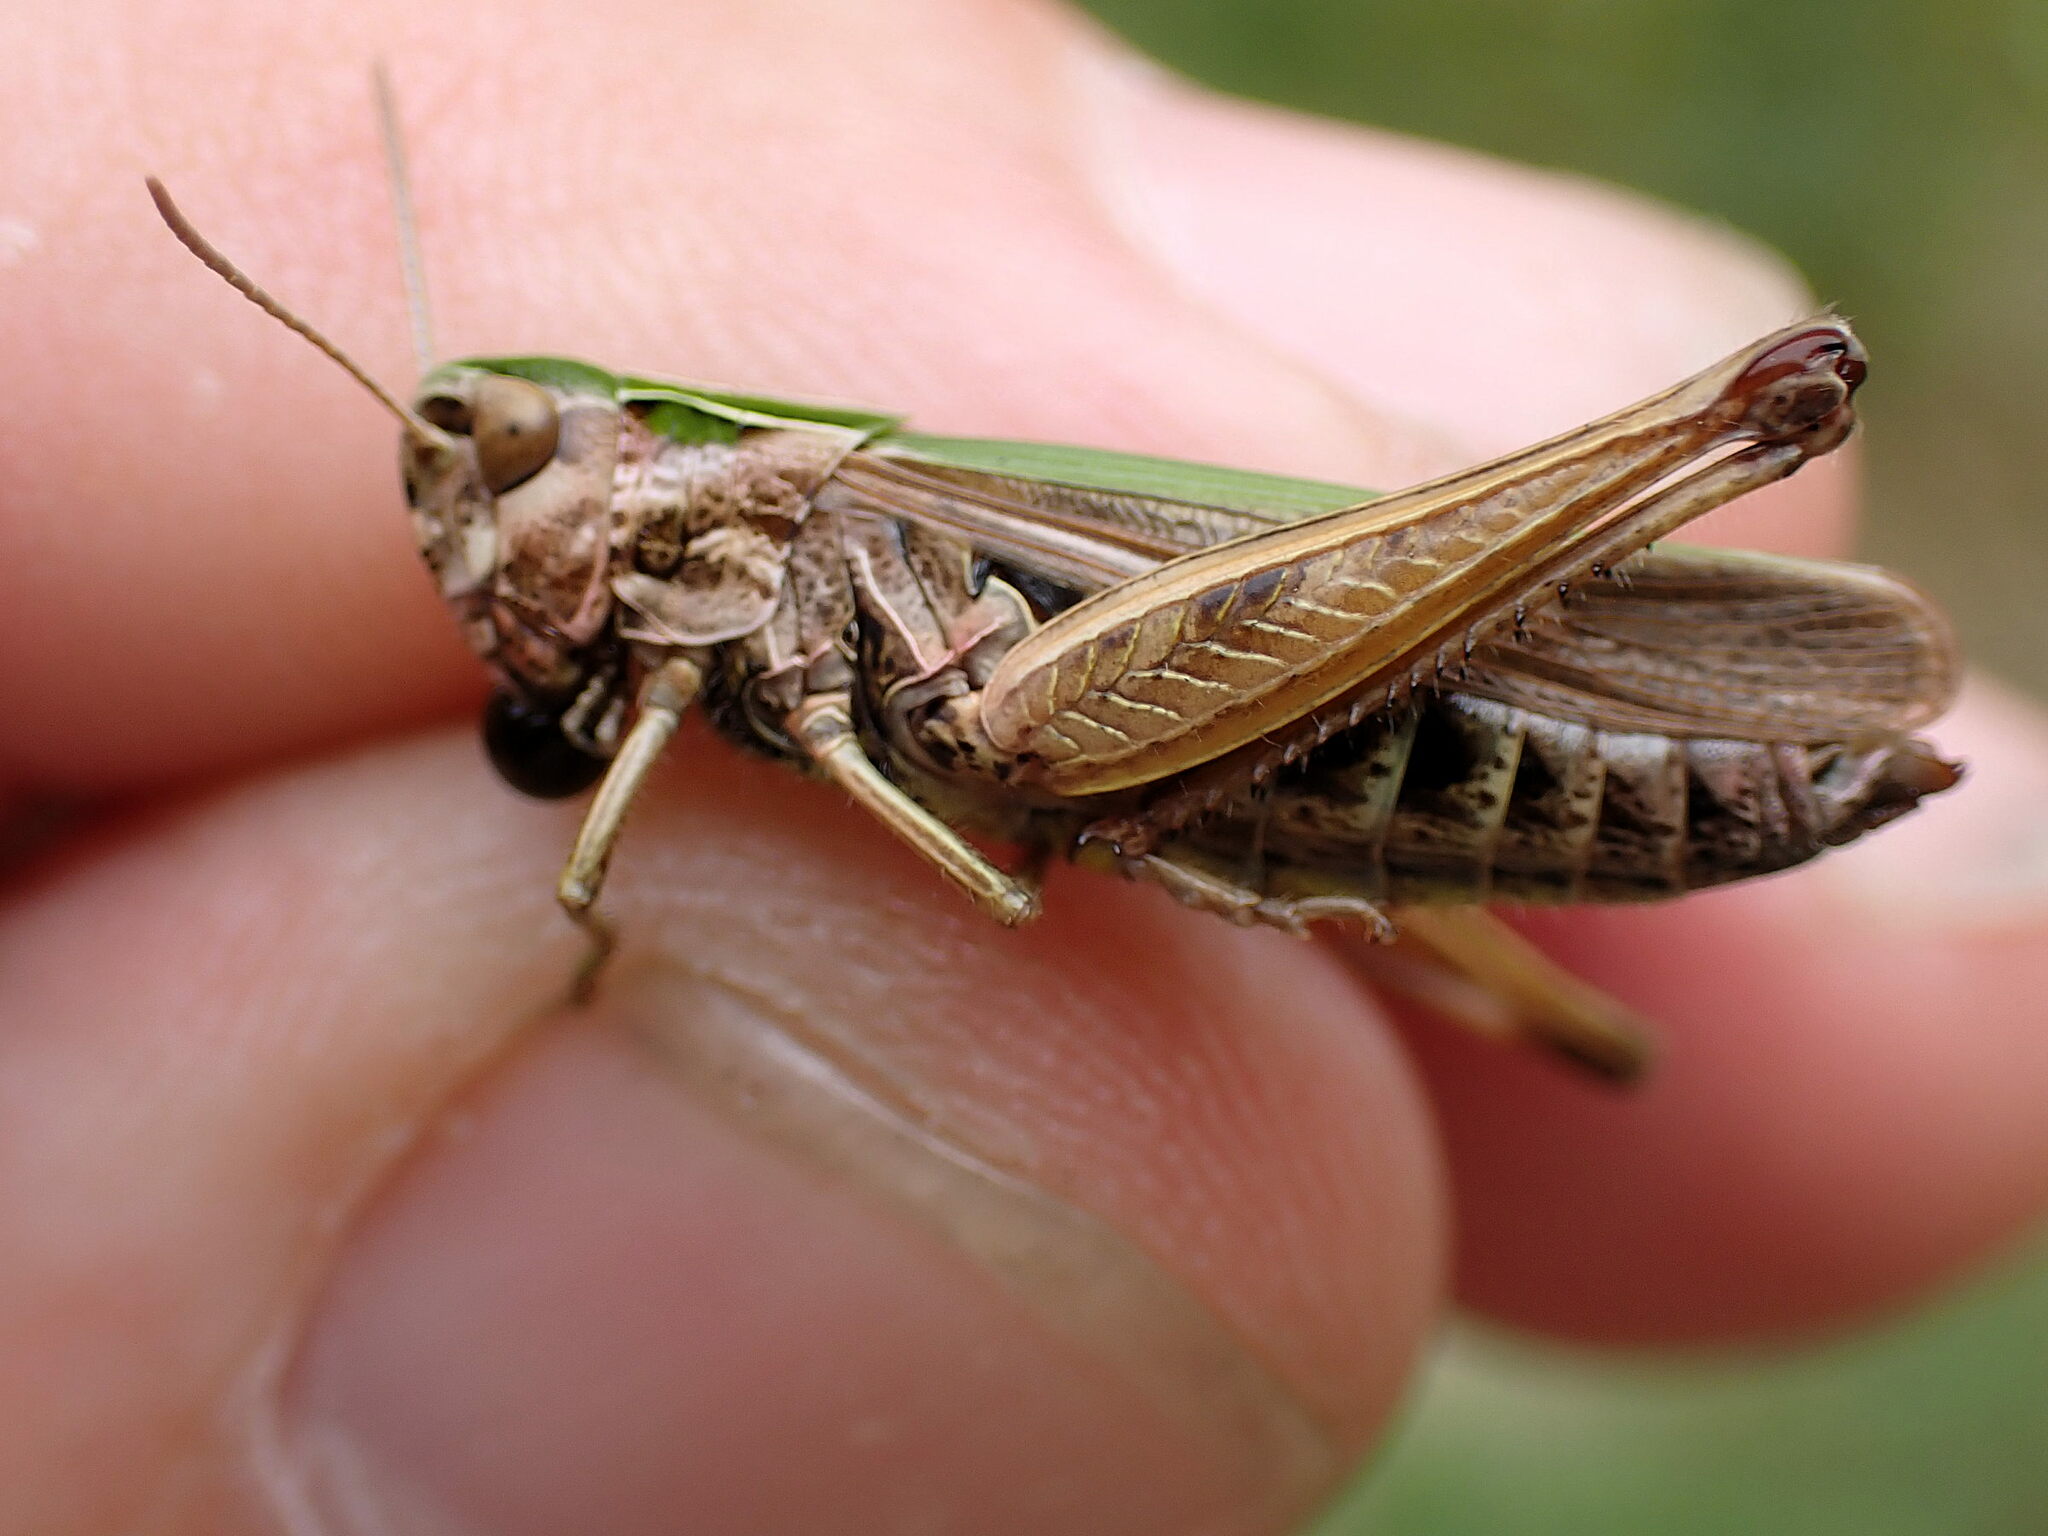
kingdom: Animalia
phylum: Arthropoda
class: Insecta
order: Orthoptera
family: Acrididae
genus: Omocestus
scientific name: Omocestus viridulus
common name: Common green grasshopper
